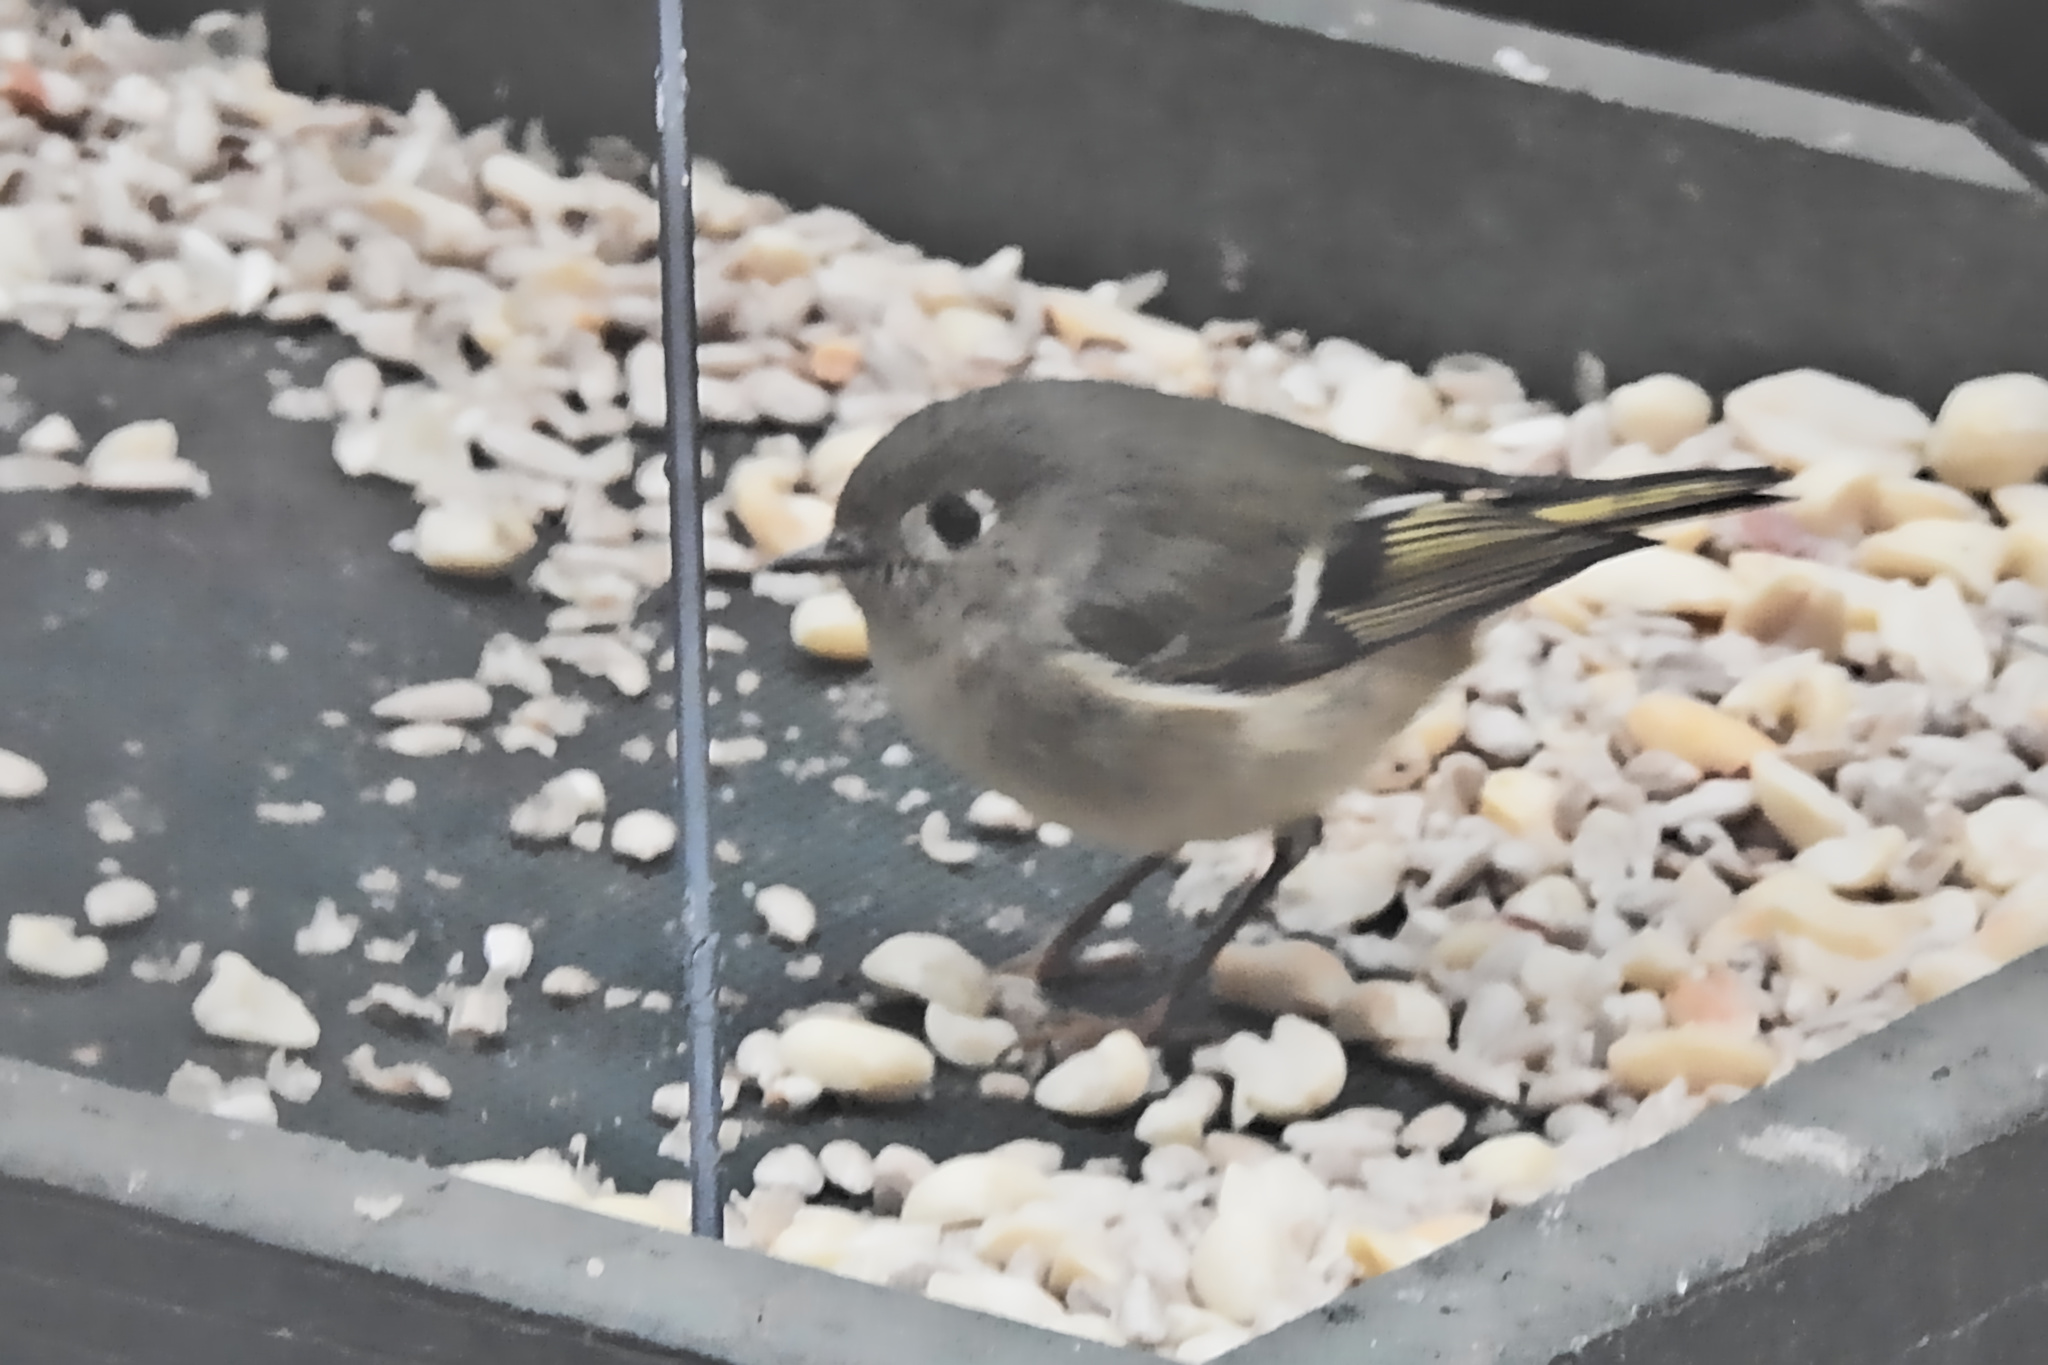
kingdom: Animalia
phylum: Chordata
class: Aves
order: Passeriformes
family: Regulidae
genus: Regulus
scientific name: Regulus calendula
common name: Ruby-crowned kinglet
